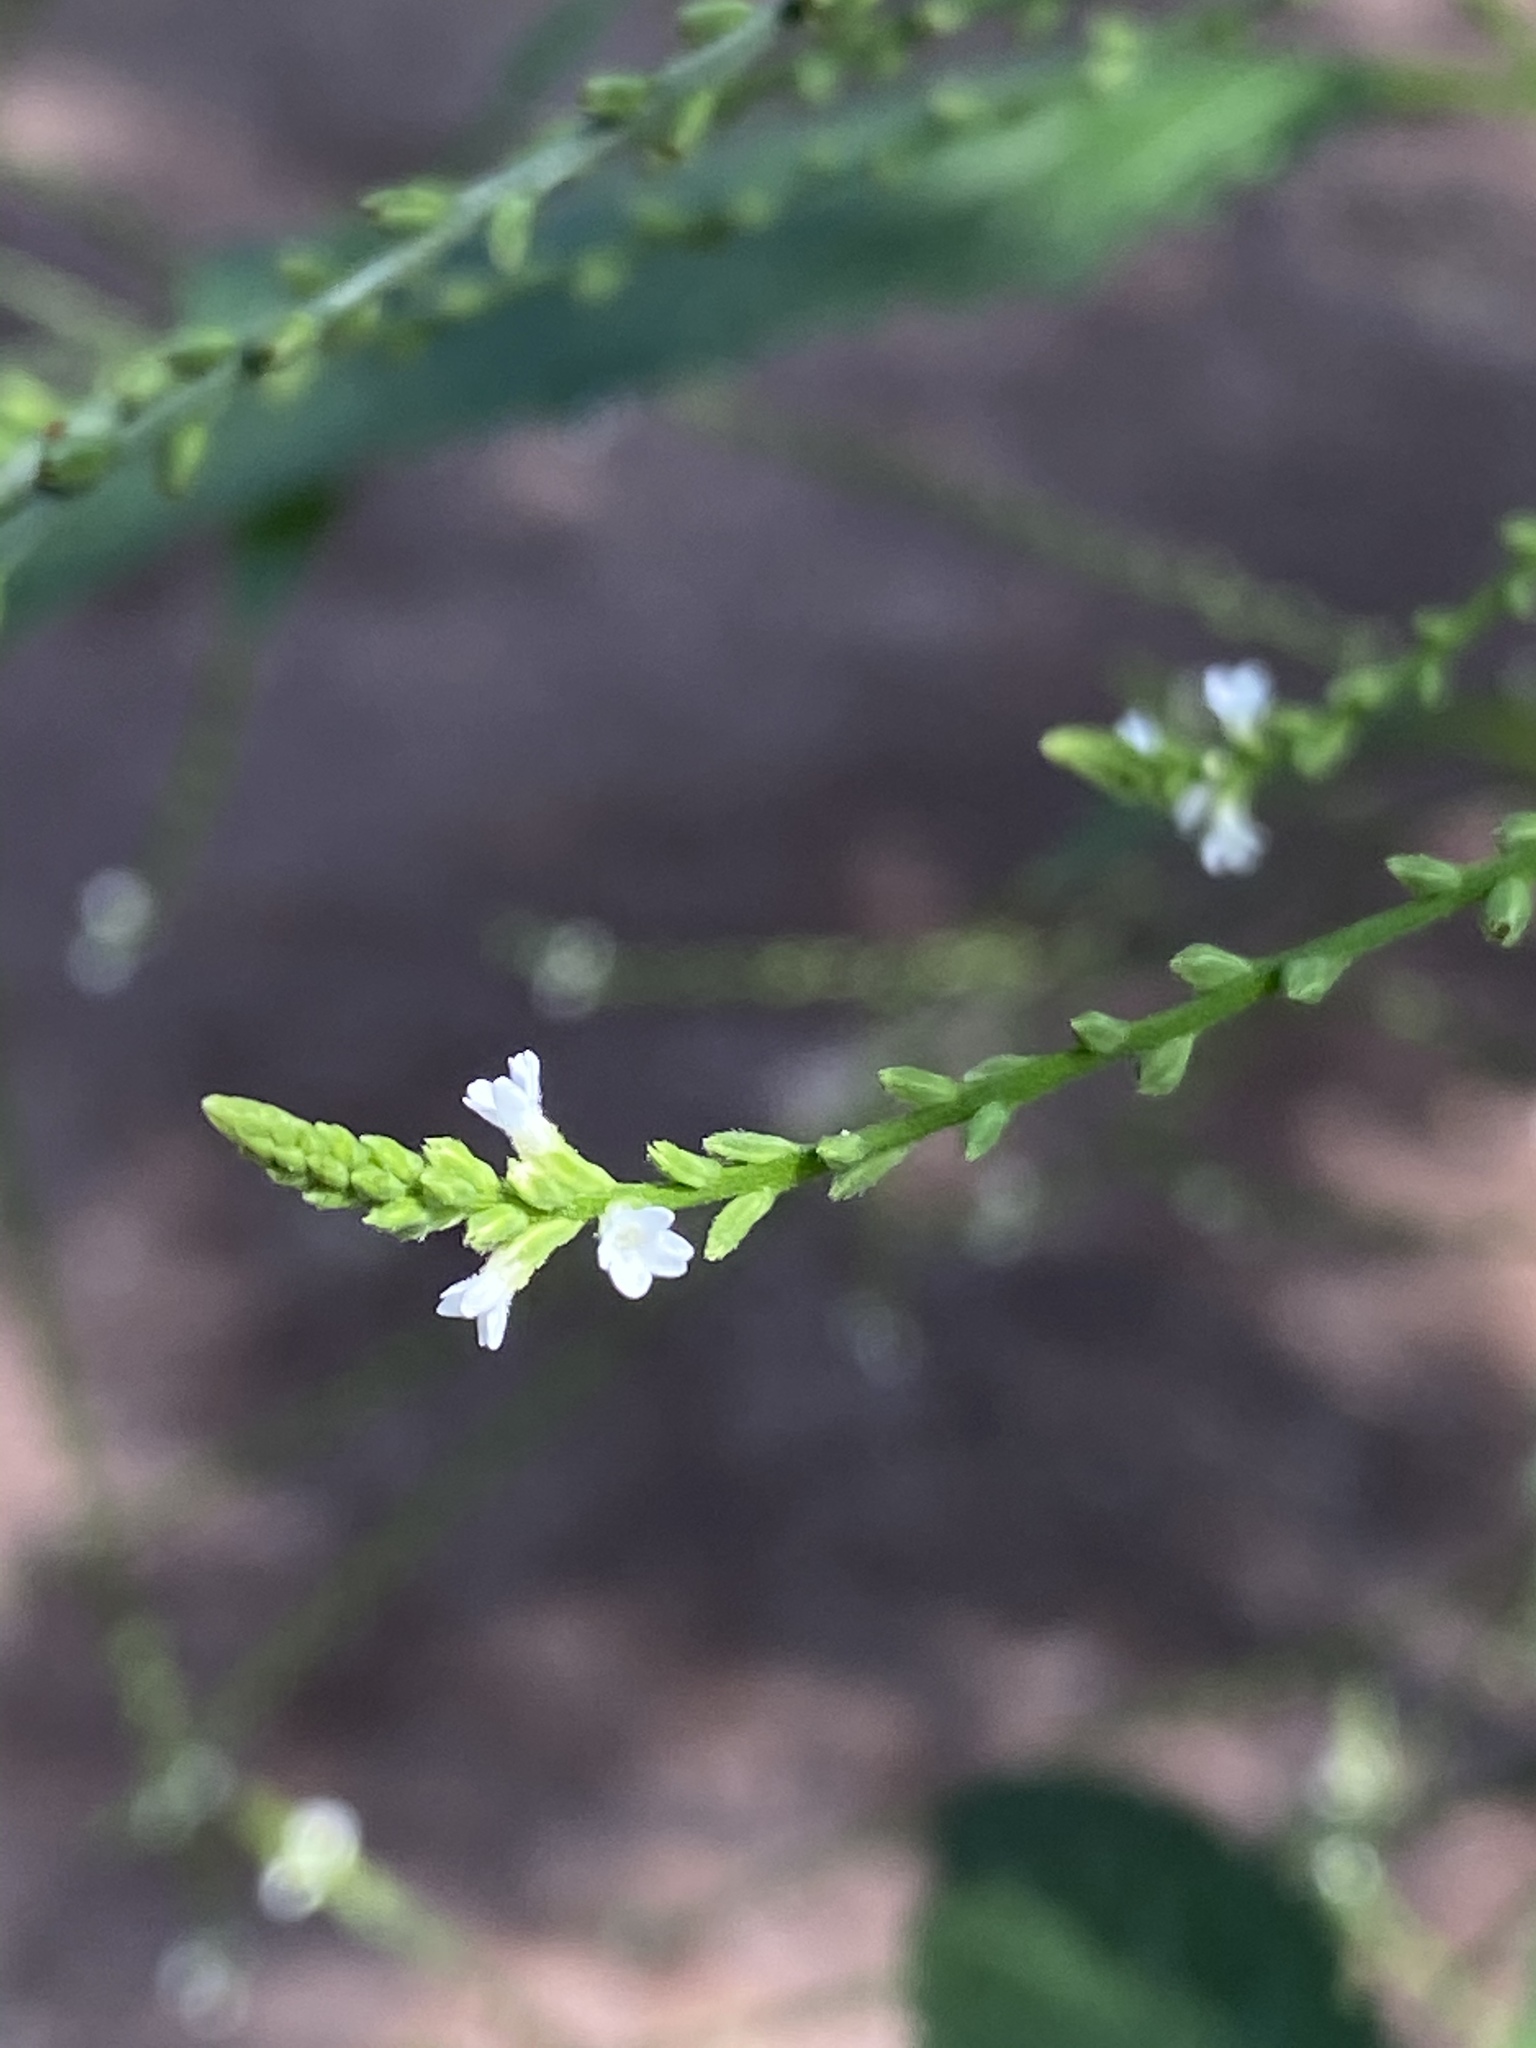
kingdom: Plantae
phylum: Tracheophyta
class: Magnoliopsida
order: Lamiales
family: Verbenaceae
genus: Verbena
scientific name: Verbena urticifolia
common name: Nettle-leaved vervain
